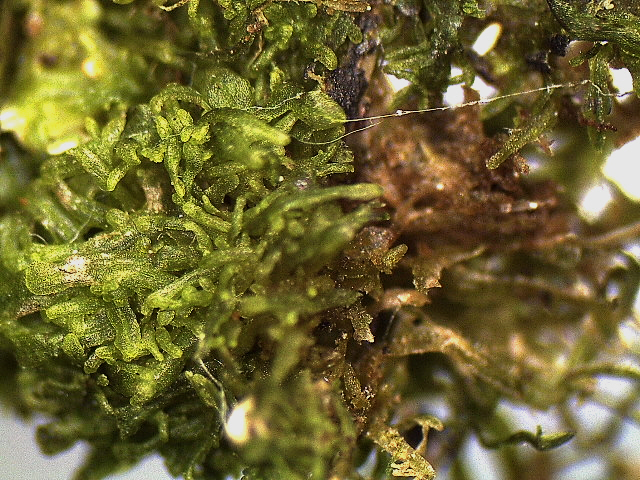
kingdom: Plantae
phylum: Marchantiophyta
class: Jungermanniopsida
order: Metzgeriales
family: Metzgeriaceae
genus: Metzgeria
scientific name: Metzgeria crassipilis
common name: Hairy veilwort
